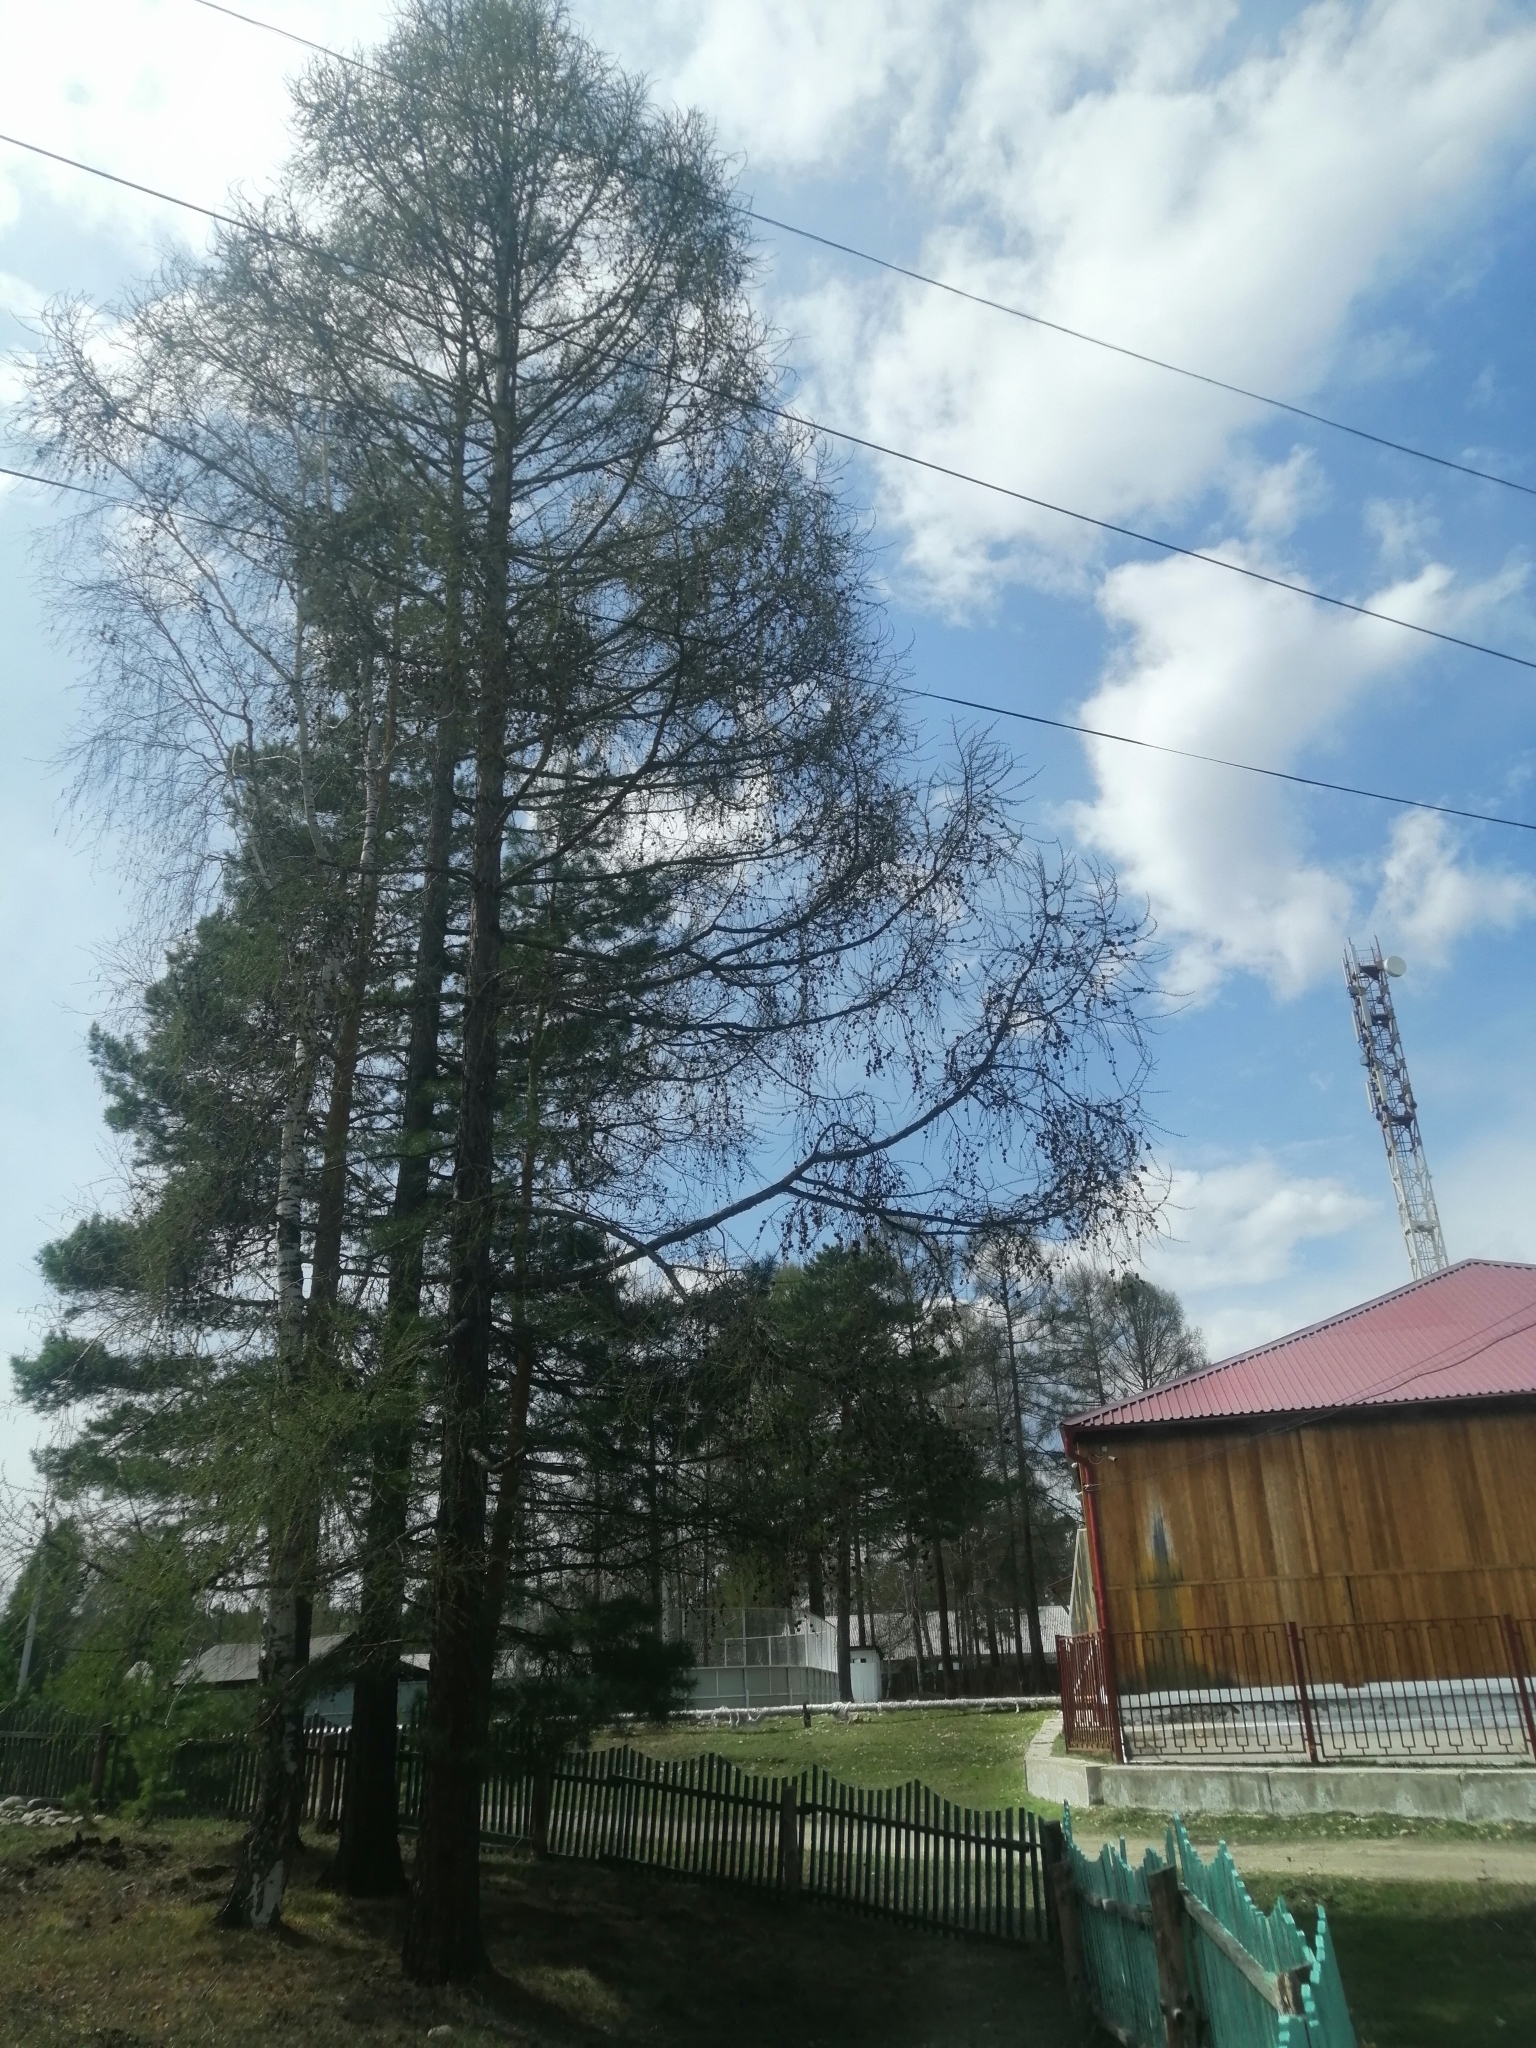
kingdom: Plantae
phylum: Tracheophyta
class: Pinopsida
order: Pinales
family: Pinaceae
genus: Larix
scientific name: Larix sibirica
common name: Siberian larch
